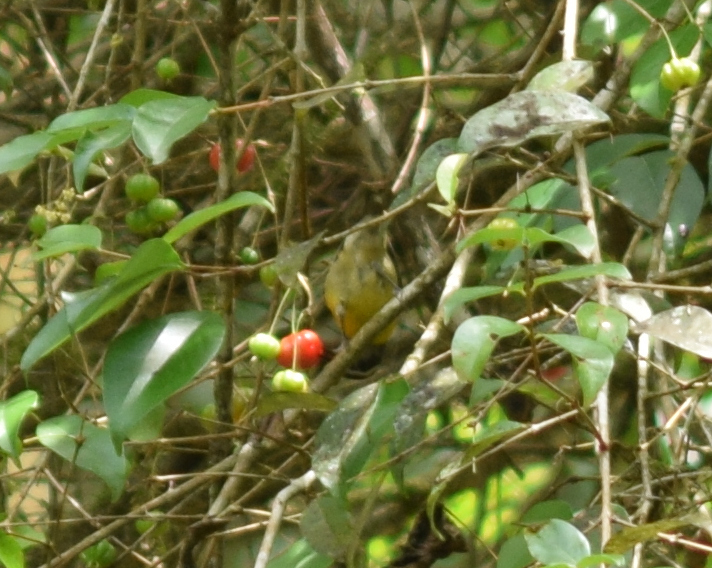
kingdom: Animalia
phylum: Chordata
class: Aves
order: Passeriformes
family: Thraupidae
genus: Coereba
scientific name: Coereba flaveola
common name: Bananaquit
